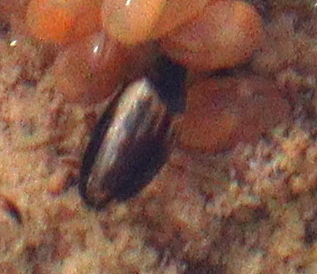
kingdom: Animalia
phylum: Arthropoda
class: Insecta
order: Coleoptera
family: Dytiscidae
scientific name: Dytiscidae
